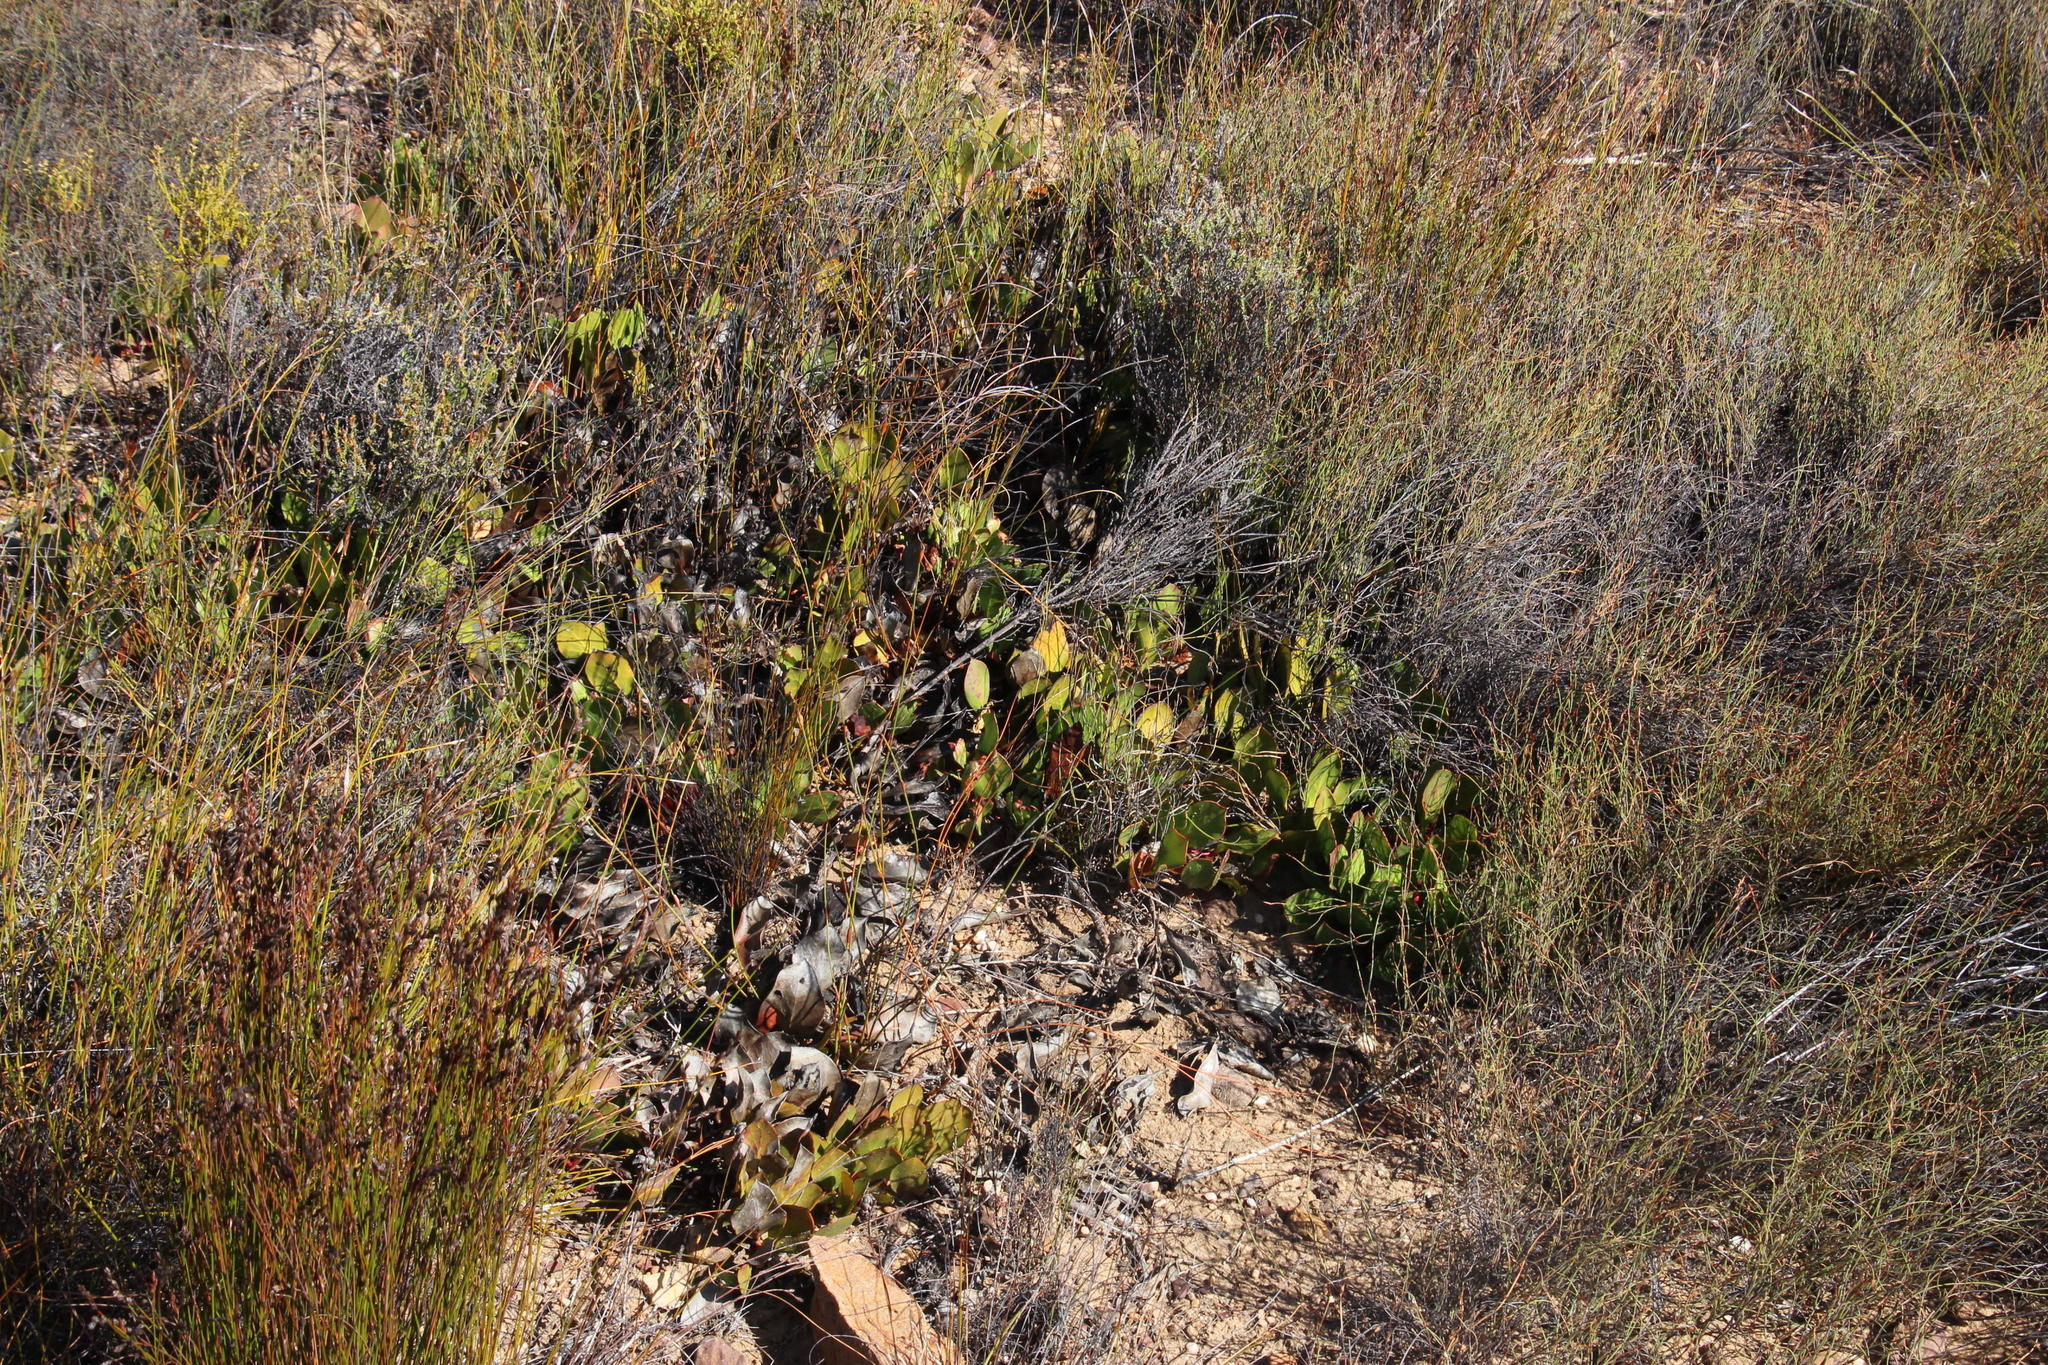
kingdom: Plantae
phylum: Tracheophyta
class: Magnoliopsida
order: Proteales
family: Proteaceae
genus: Protea
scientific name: Protea acaulos
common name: Common ground sugarbush
